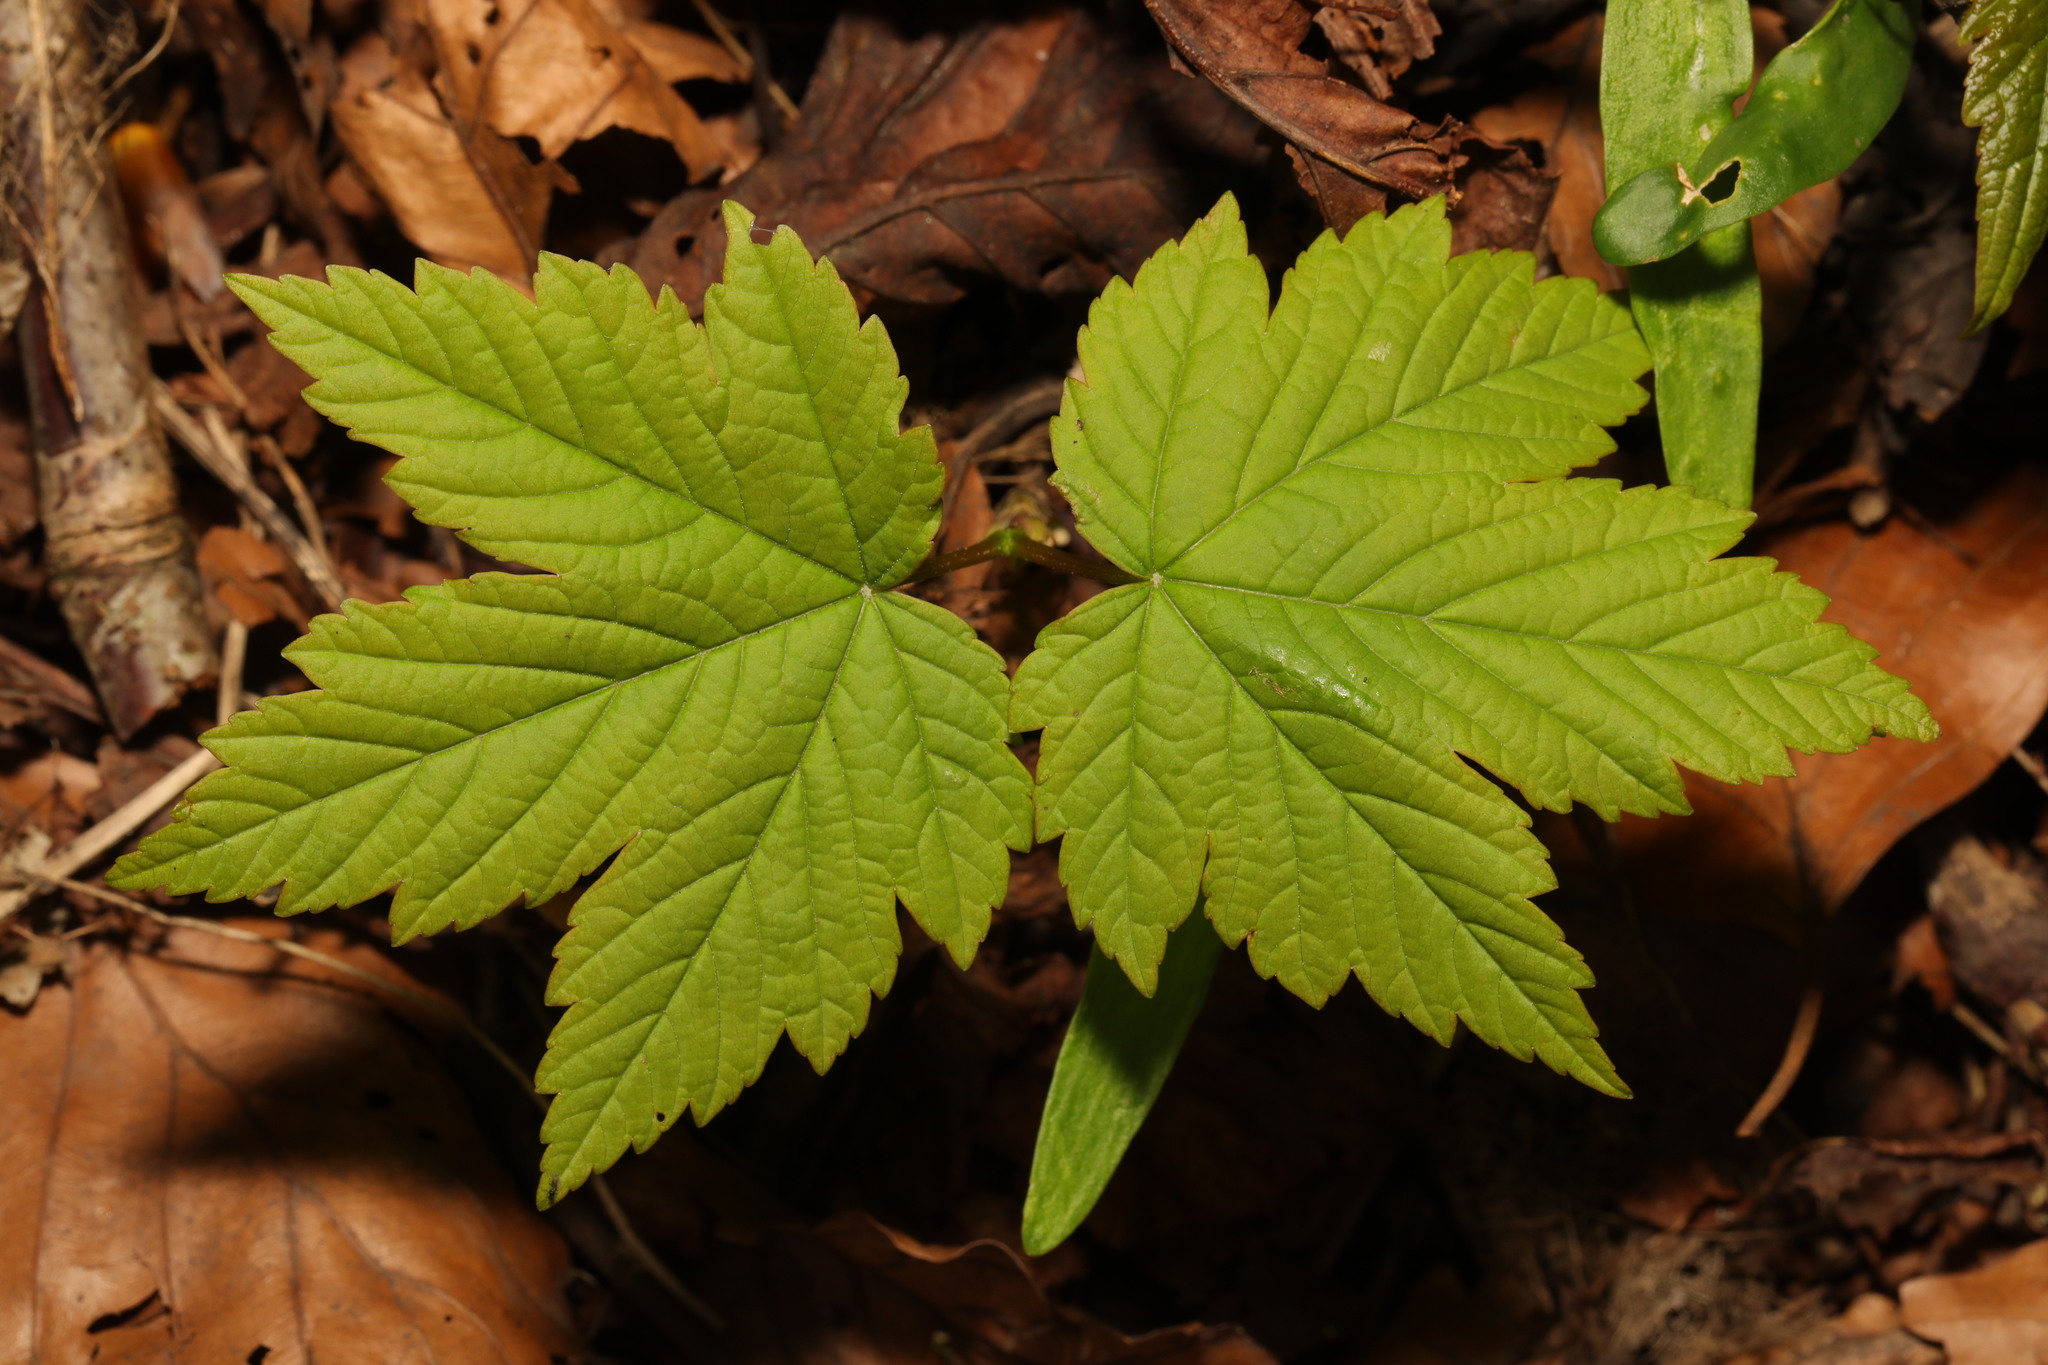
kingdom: Plantae
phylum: Tracheophyta
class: Magnoliopsida
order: Sapindales
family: Sapindaceae
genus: Acer
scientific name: Acer pseudoplatanus
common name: Sycamore
